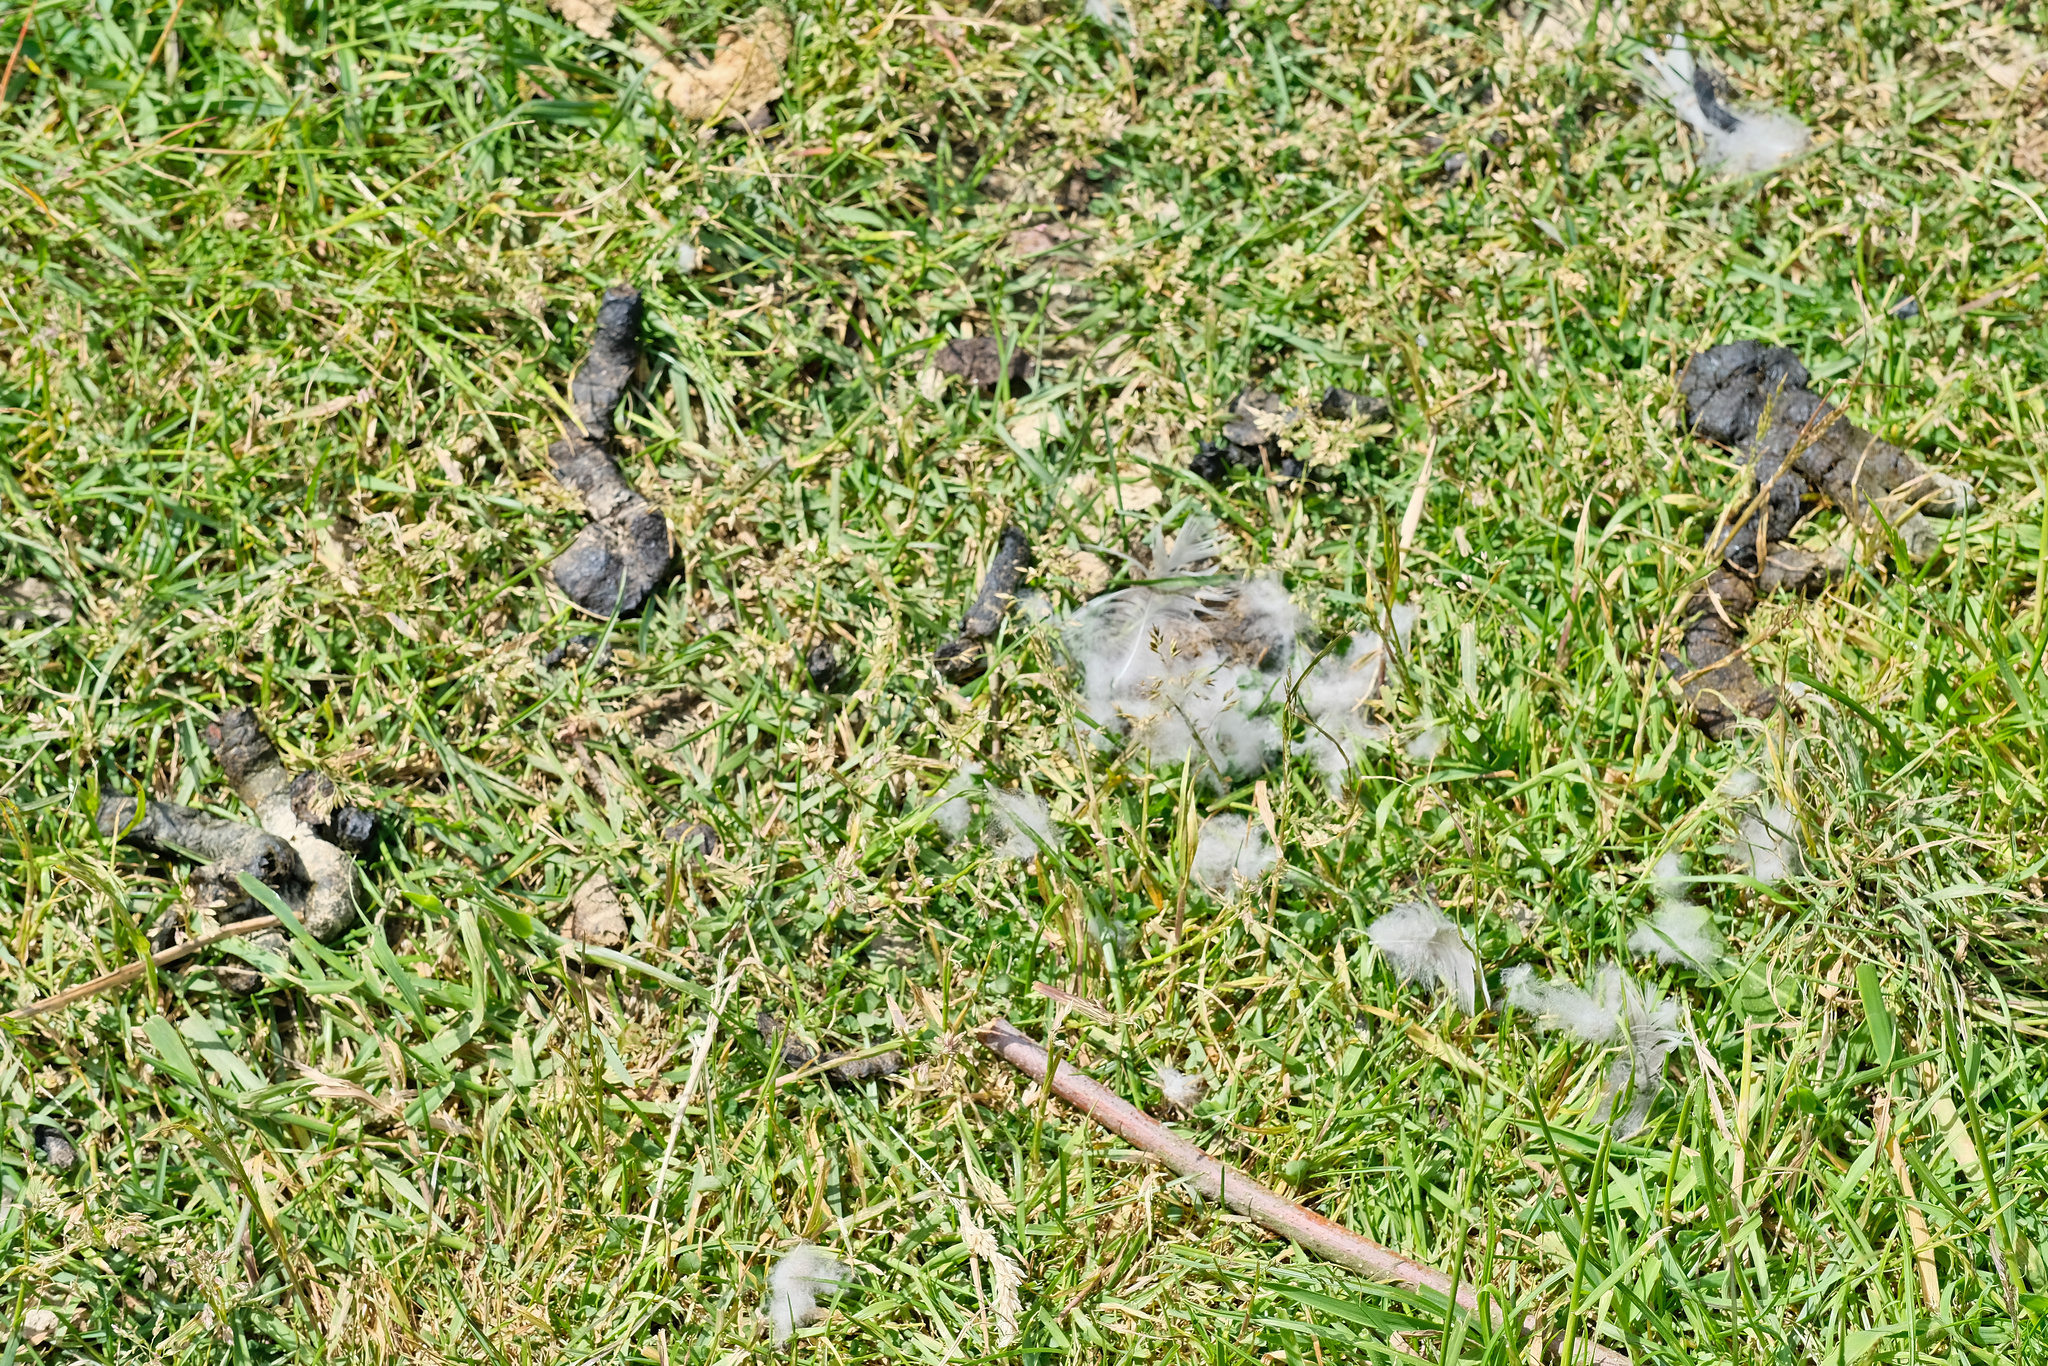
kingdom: Animalia
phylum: Chordata
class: Aves
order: Anseriformes
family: Anatidae
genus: Branta
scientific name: Branta canadensis
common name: Canada goose
